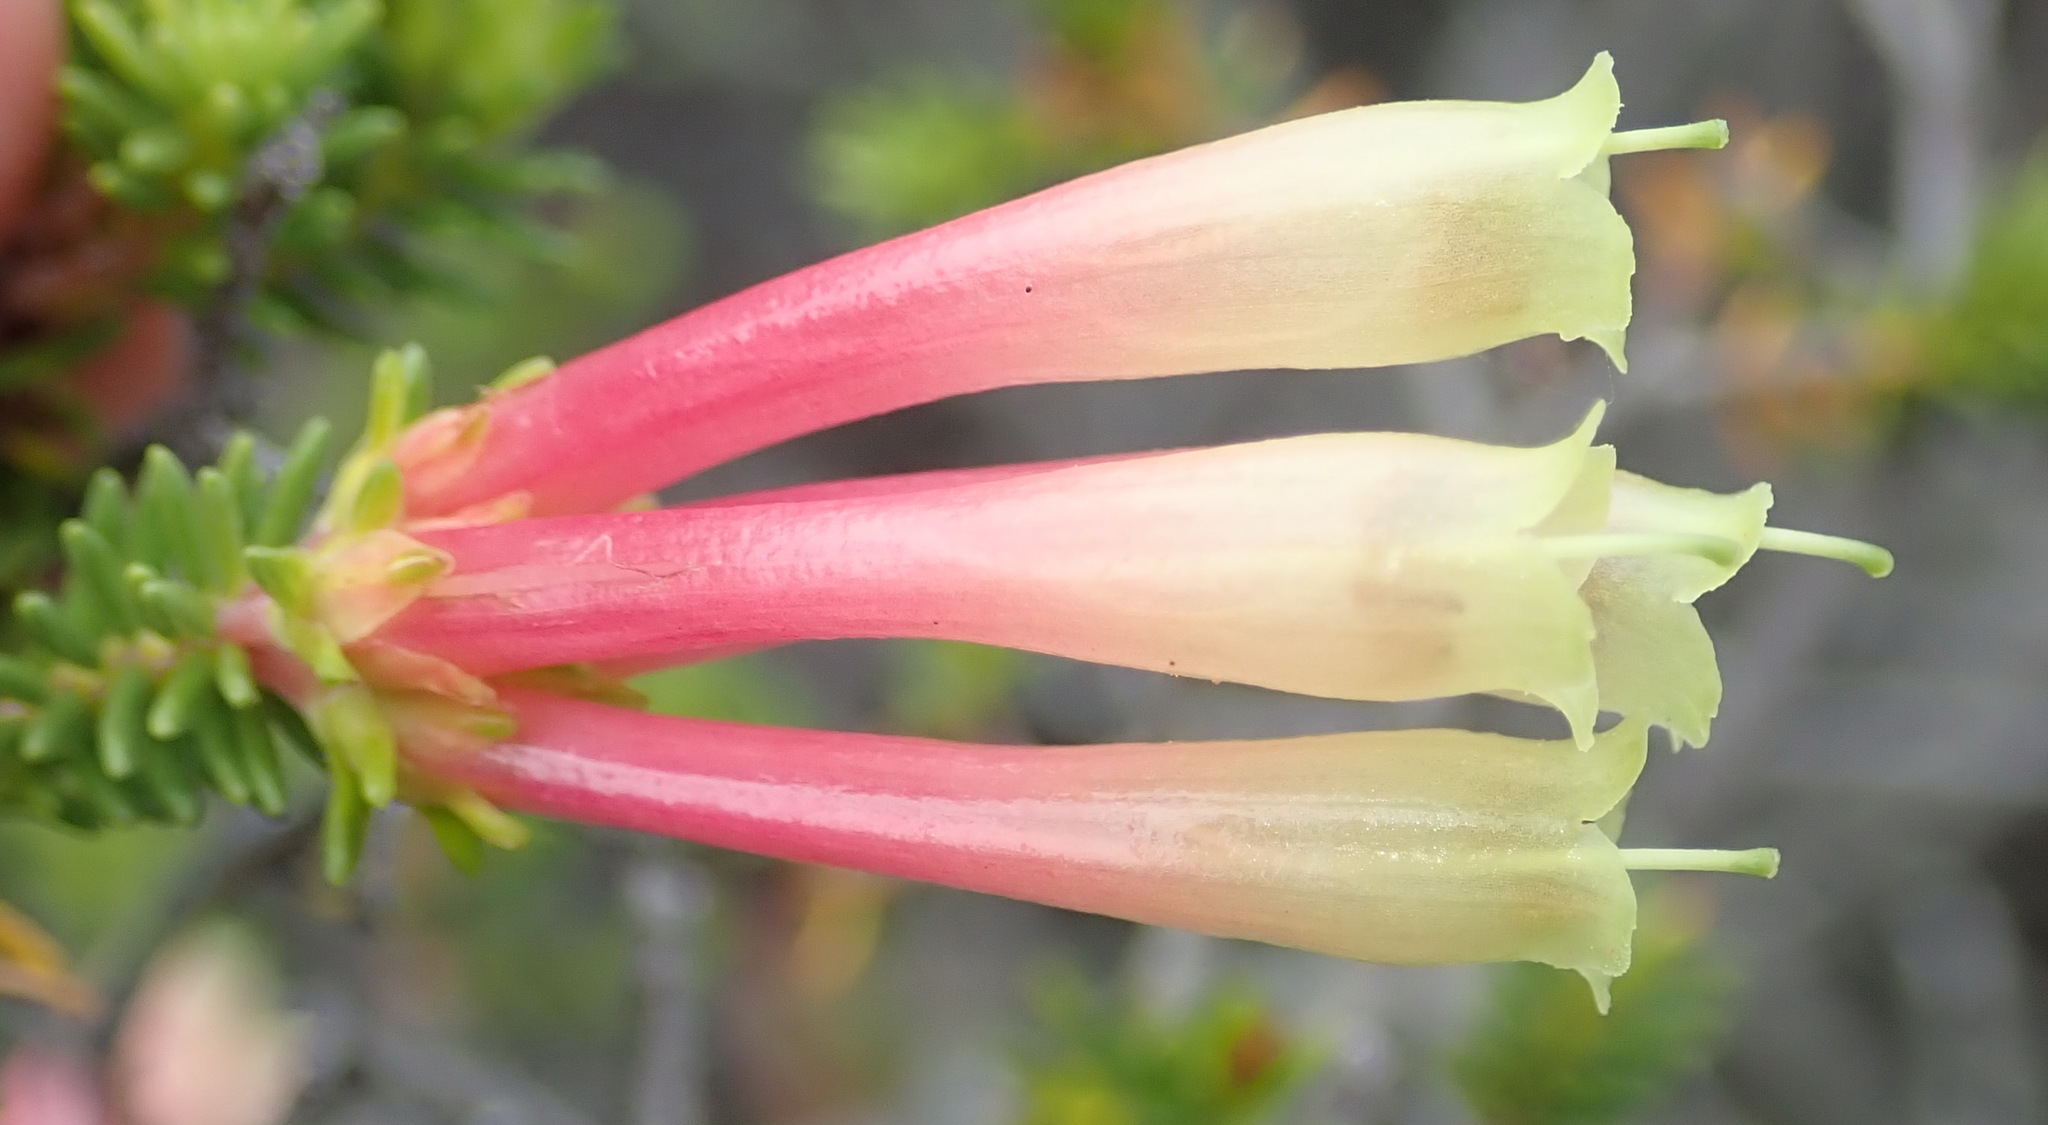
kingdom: Plantae
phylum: Tracheophyta
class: Magnoliopsida
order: Ericales
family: Ericaceae
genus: Erica
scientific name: Erica versicolor
